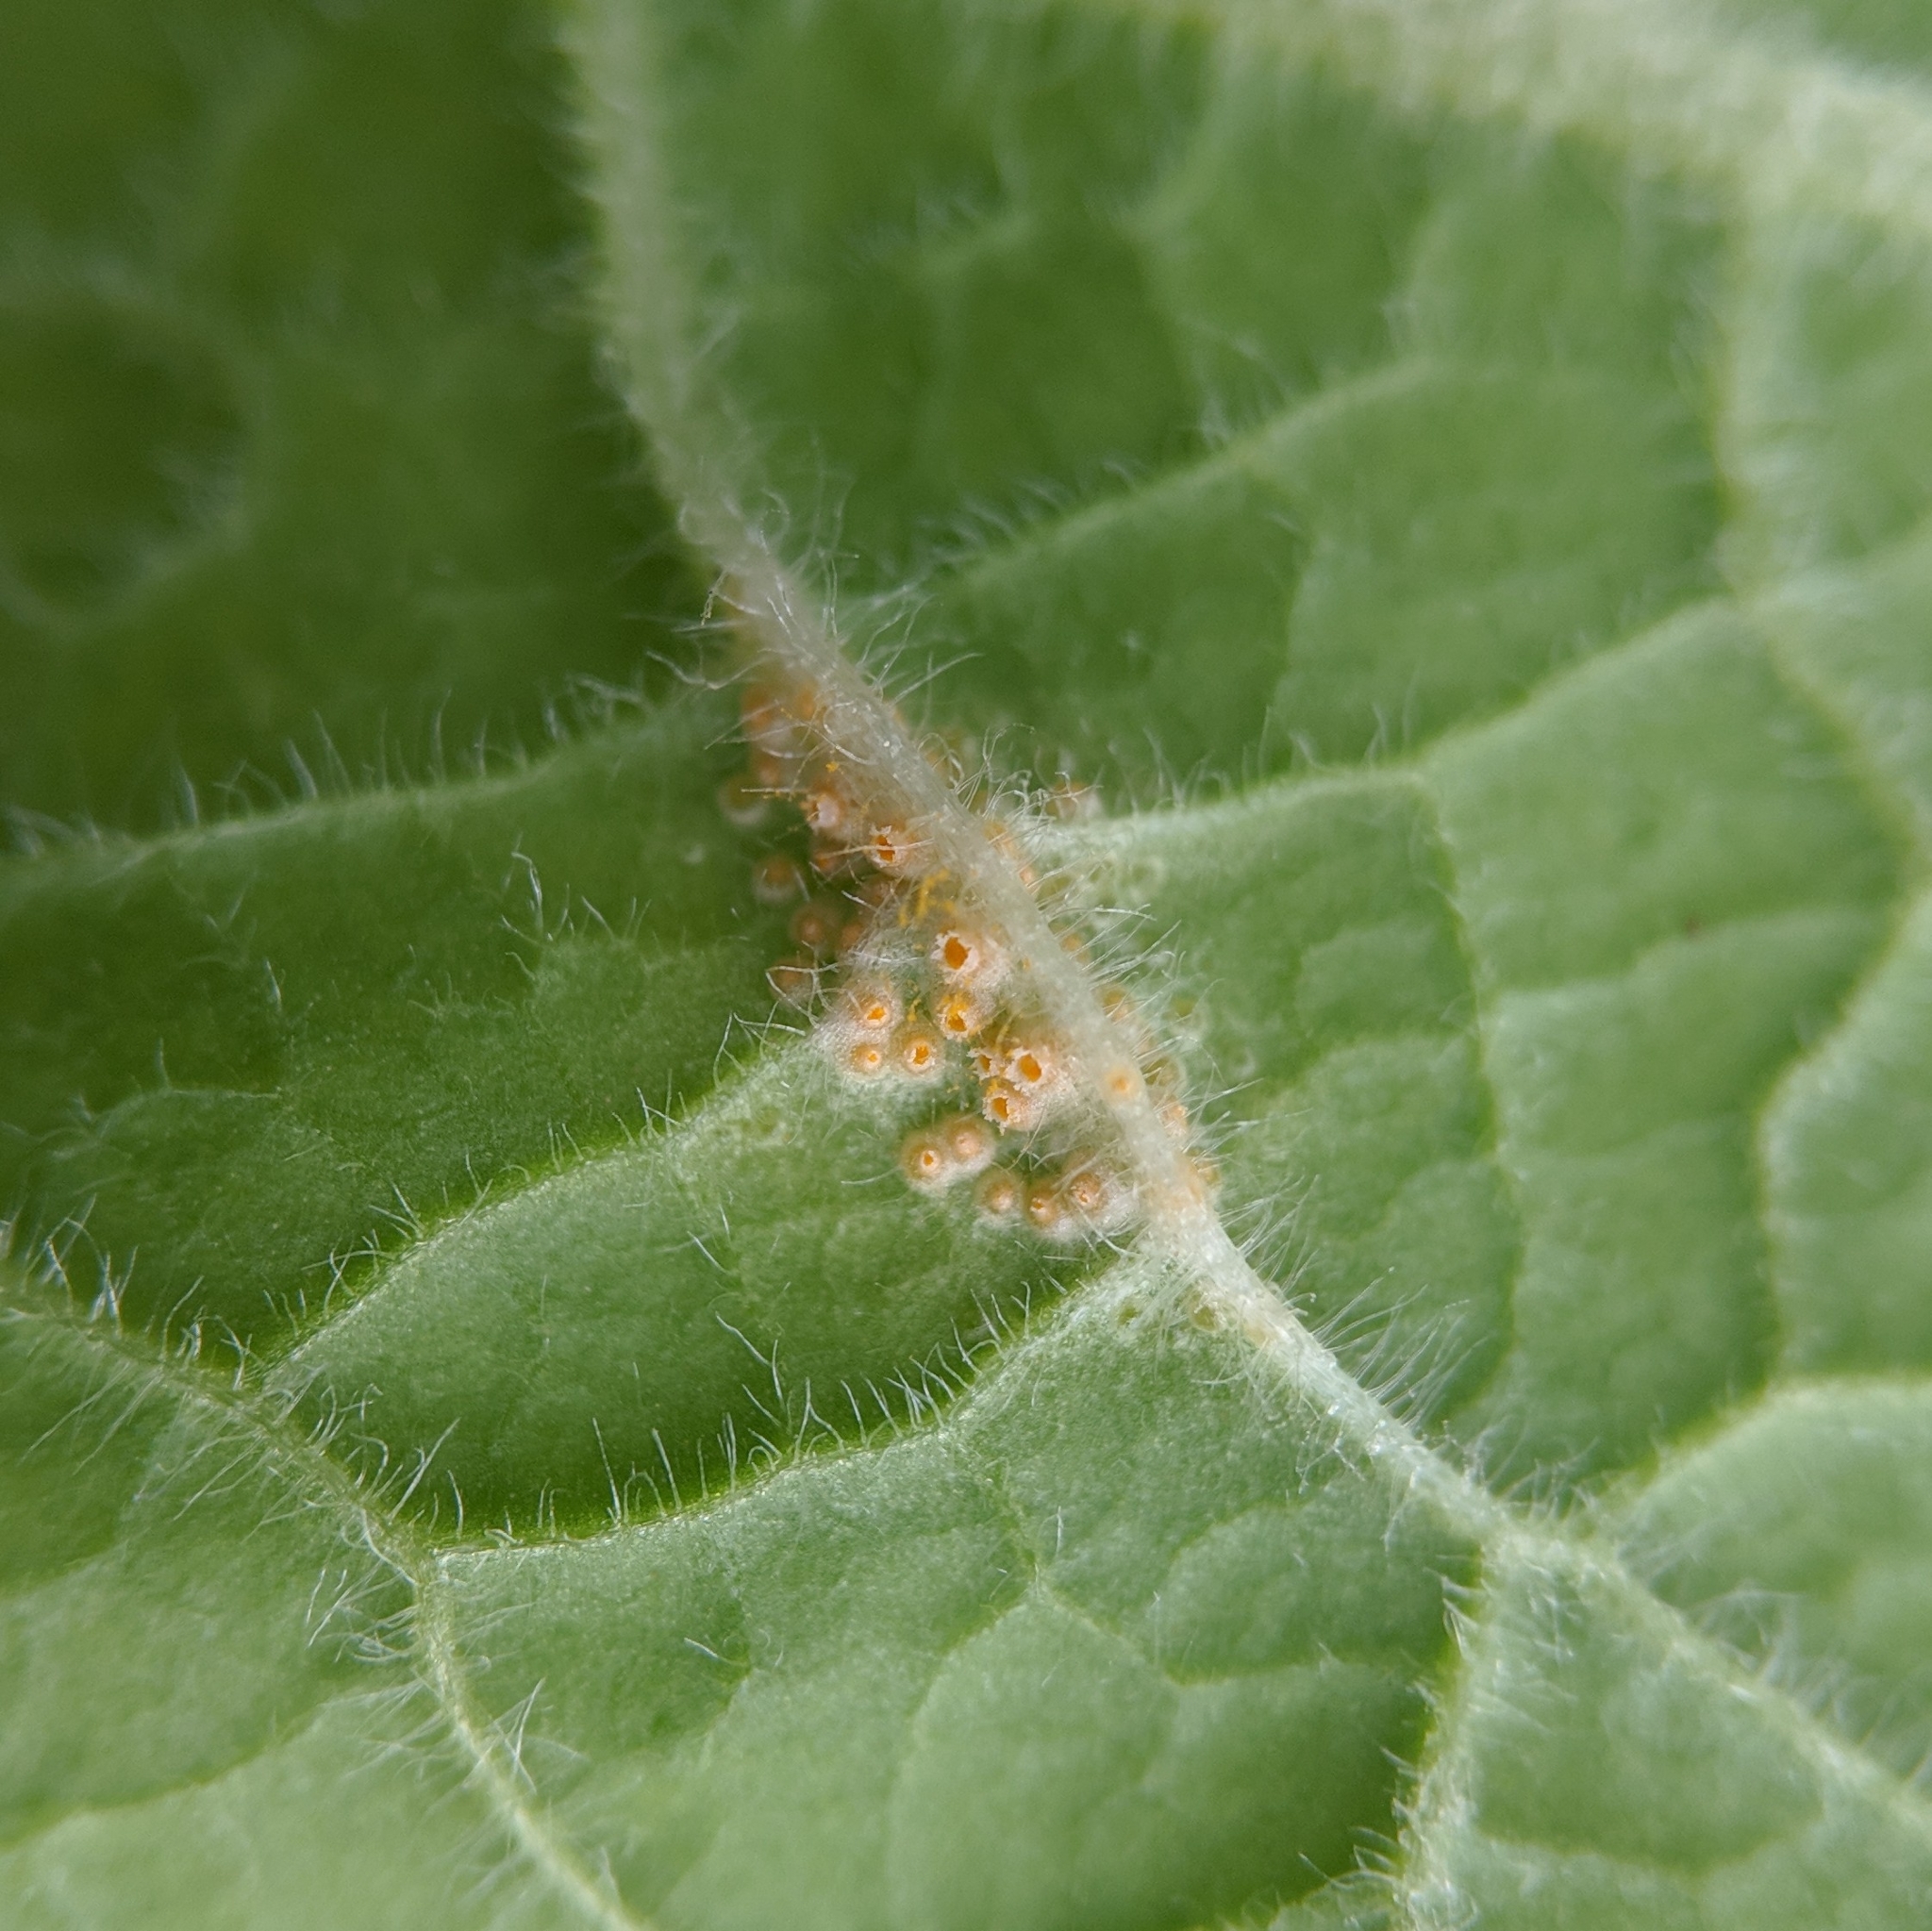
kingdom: Fungi
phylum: Basidiomycota
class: Pucciniomycetes
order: Pucciniales
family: Pucciniaceae
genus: Puccinia
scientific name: Puccinia primulae
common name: Primrose rust
